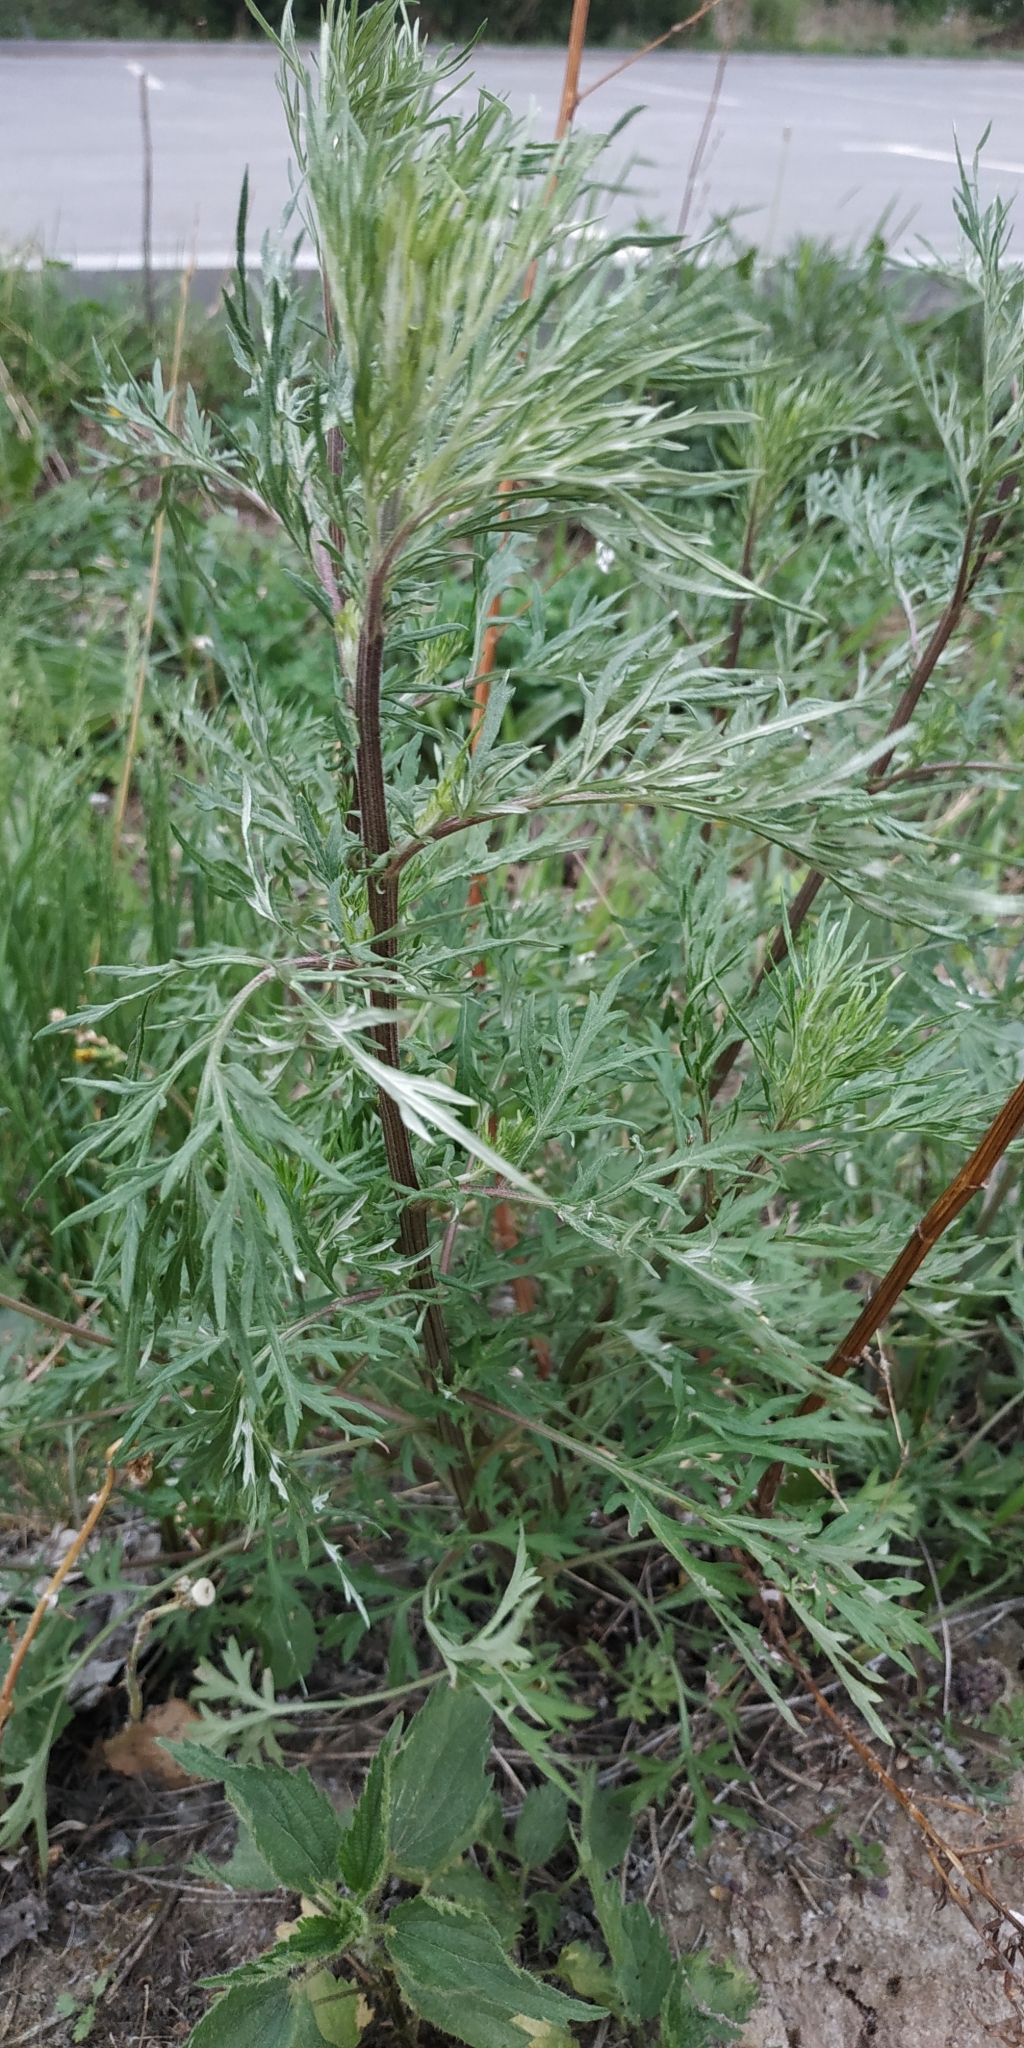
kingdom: Plantae
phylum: Tracheophyta
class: Magnoliopsida
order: Asterales
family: Asteraceae
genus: Artemisia
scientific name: Artemisia vulgaris
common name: Mugwort
